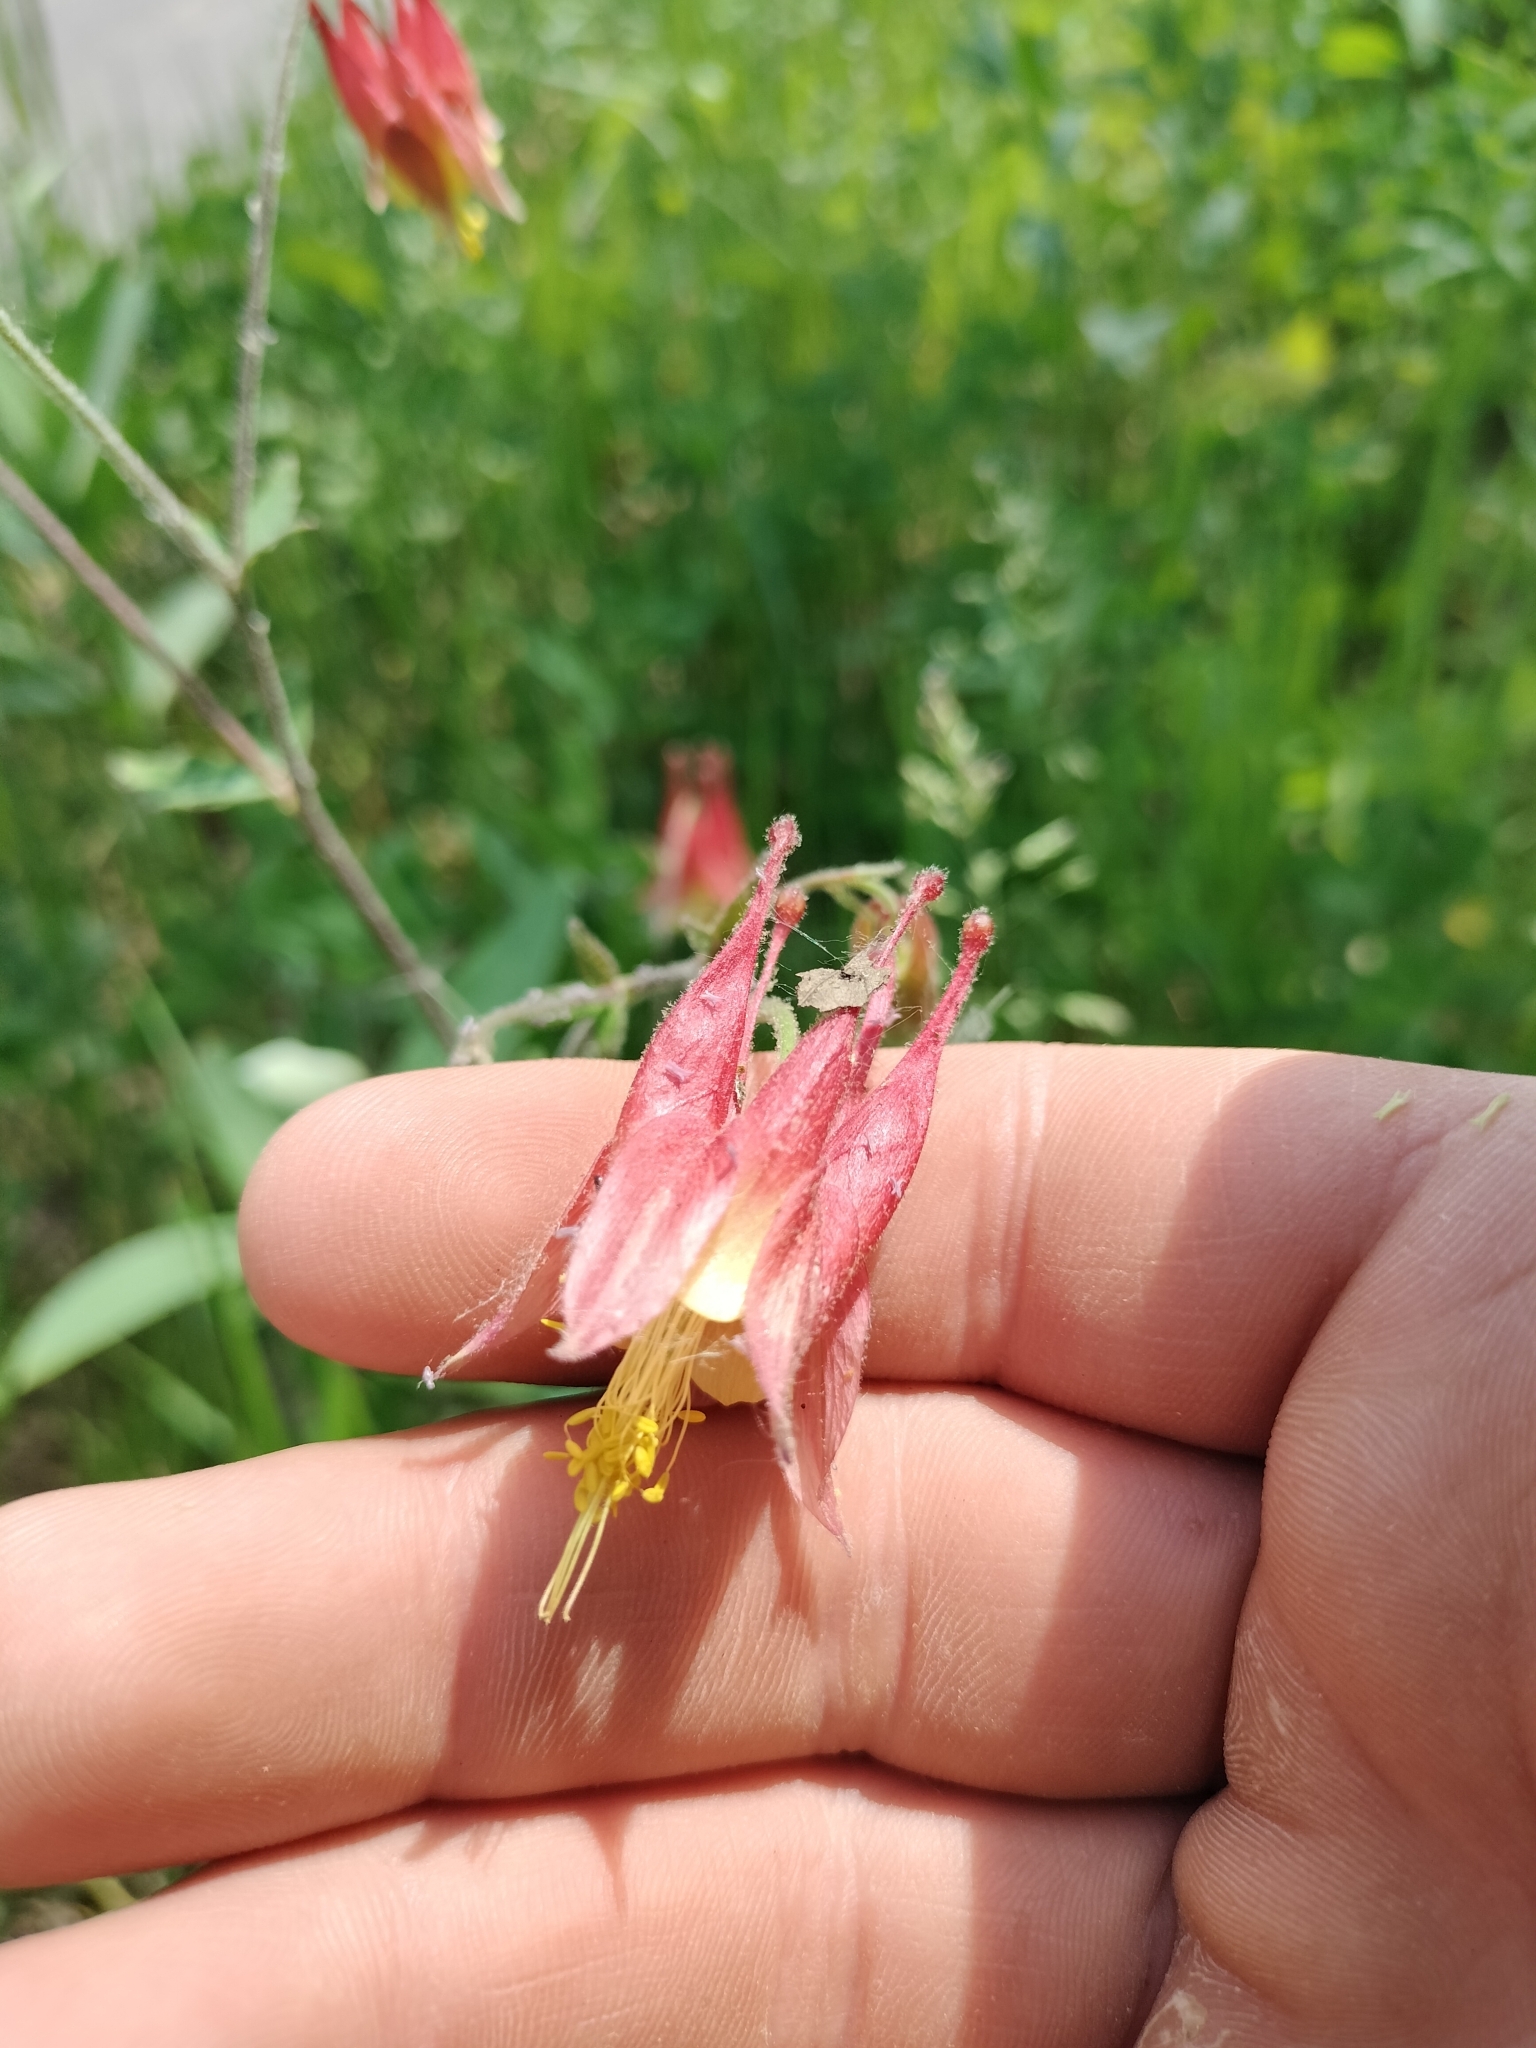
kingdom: Plantae
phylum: Tracheophyta
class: Magnoliopsida
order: Ranunculales
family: Ranunculaceae
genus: Aquilegia
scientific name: Aquilegia canadensis
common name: American columbine
